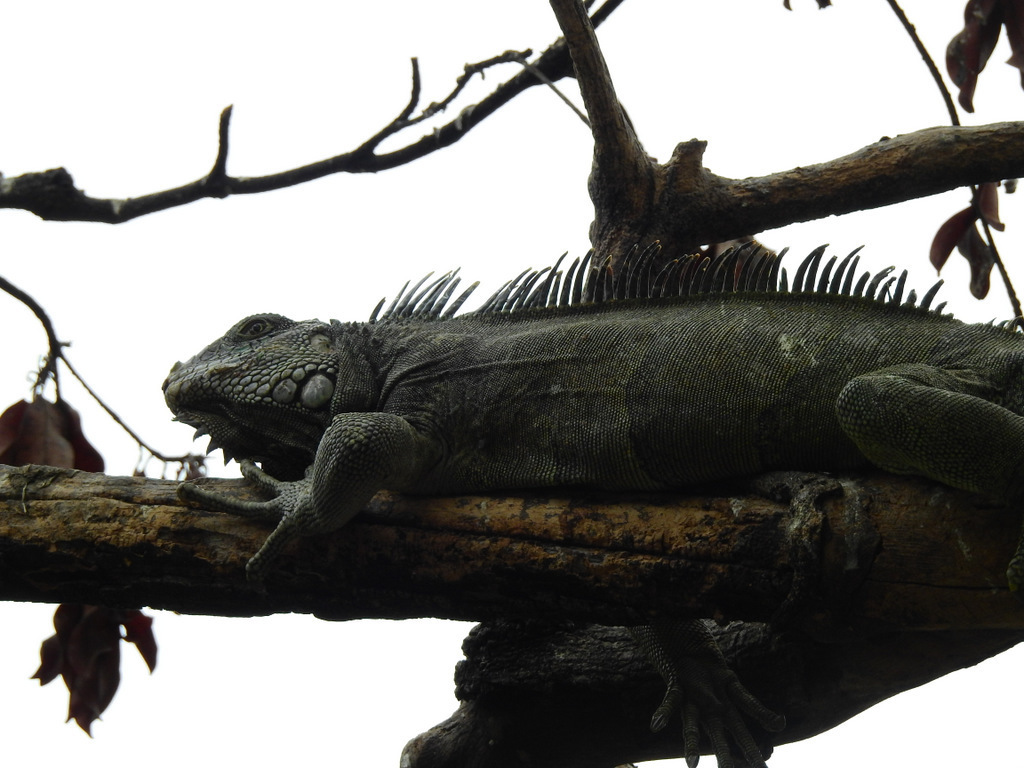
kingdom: Animalia
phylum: Chordata
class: Squamata
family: Iguanidae
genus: Iguana
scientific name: Iguana iguana
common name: Green iguana
